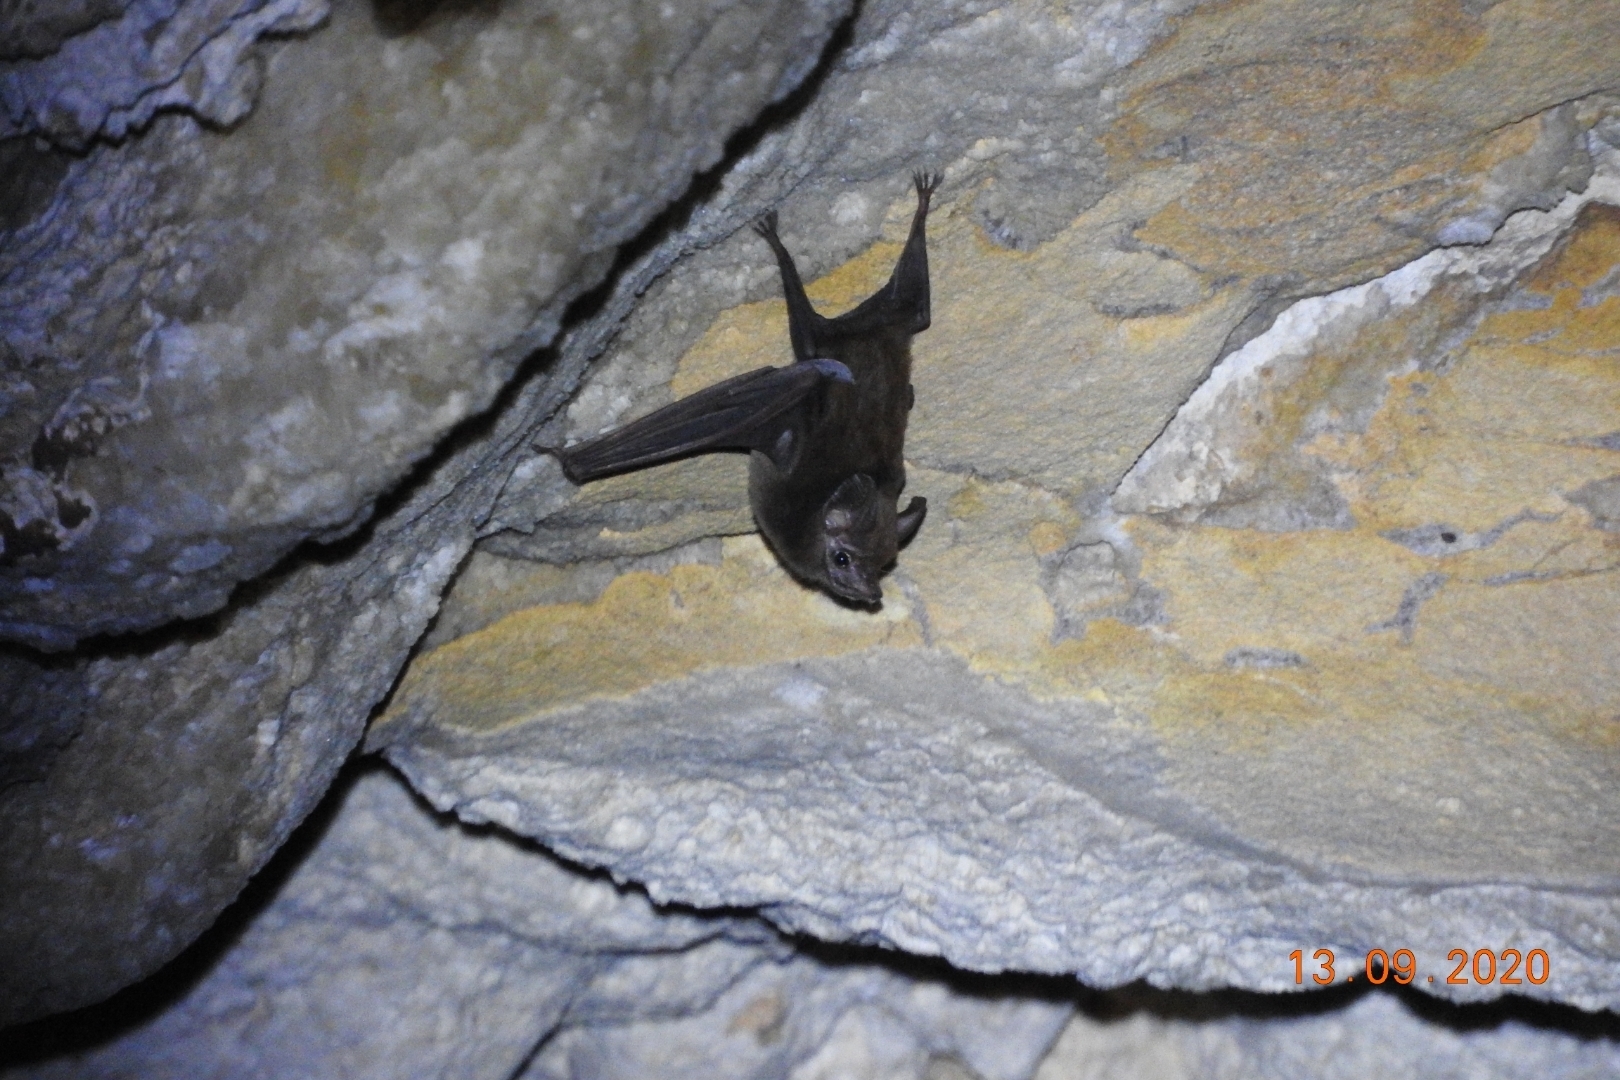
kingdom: Animalia
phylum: Chordata
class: Mammalia
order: Chiroptera
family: Emballonuridae
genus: Peropteryx
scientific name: Peropteryx macrotis
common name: Lesser dog-like bat
